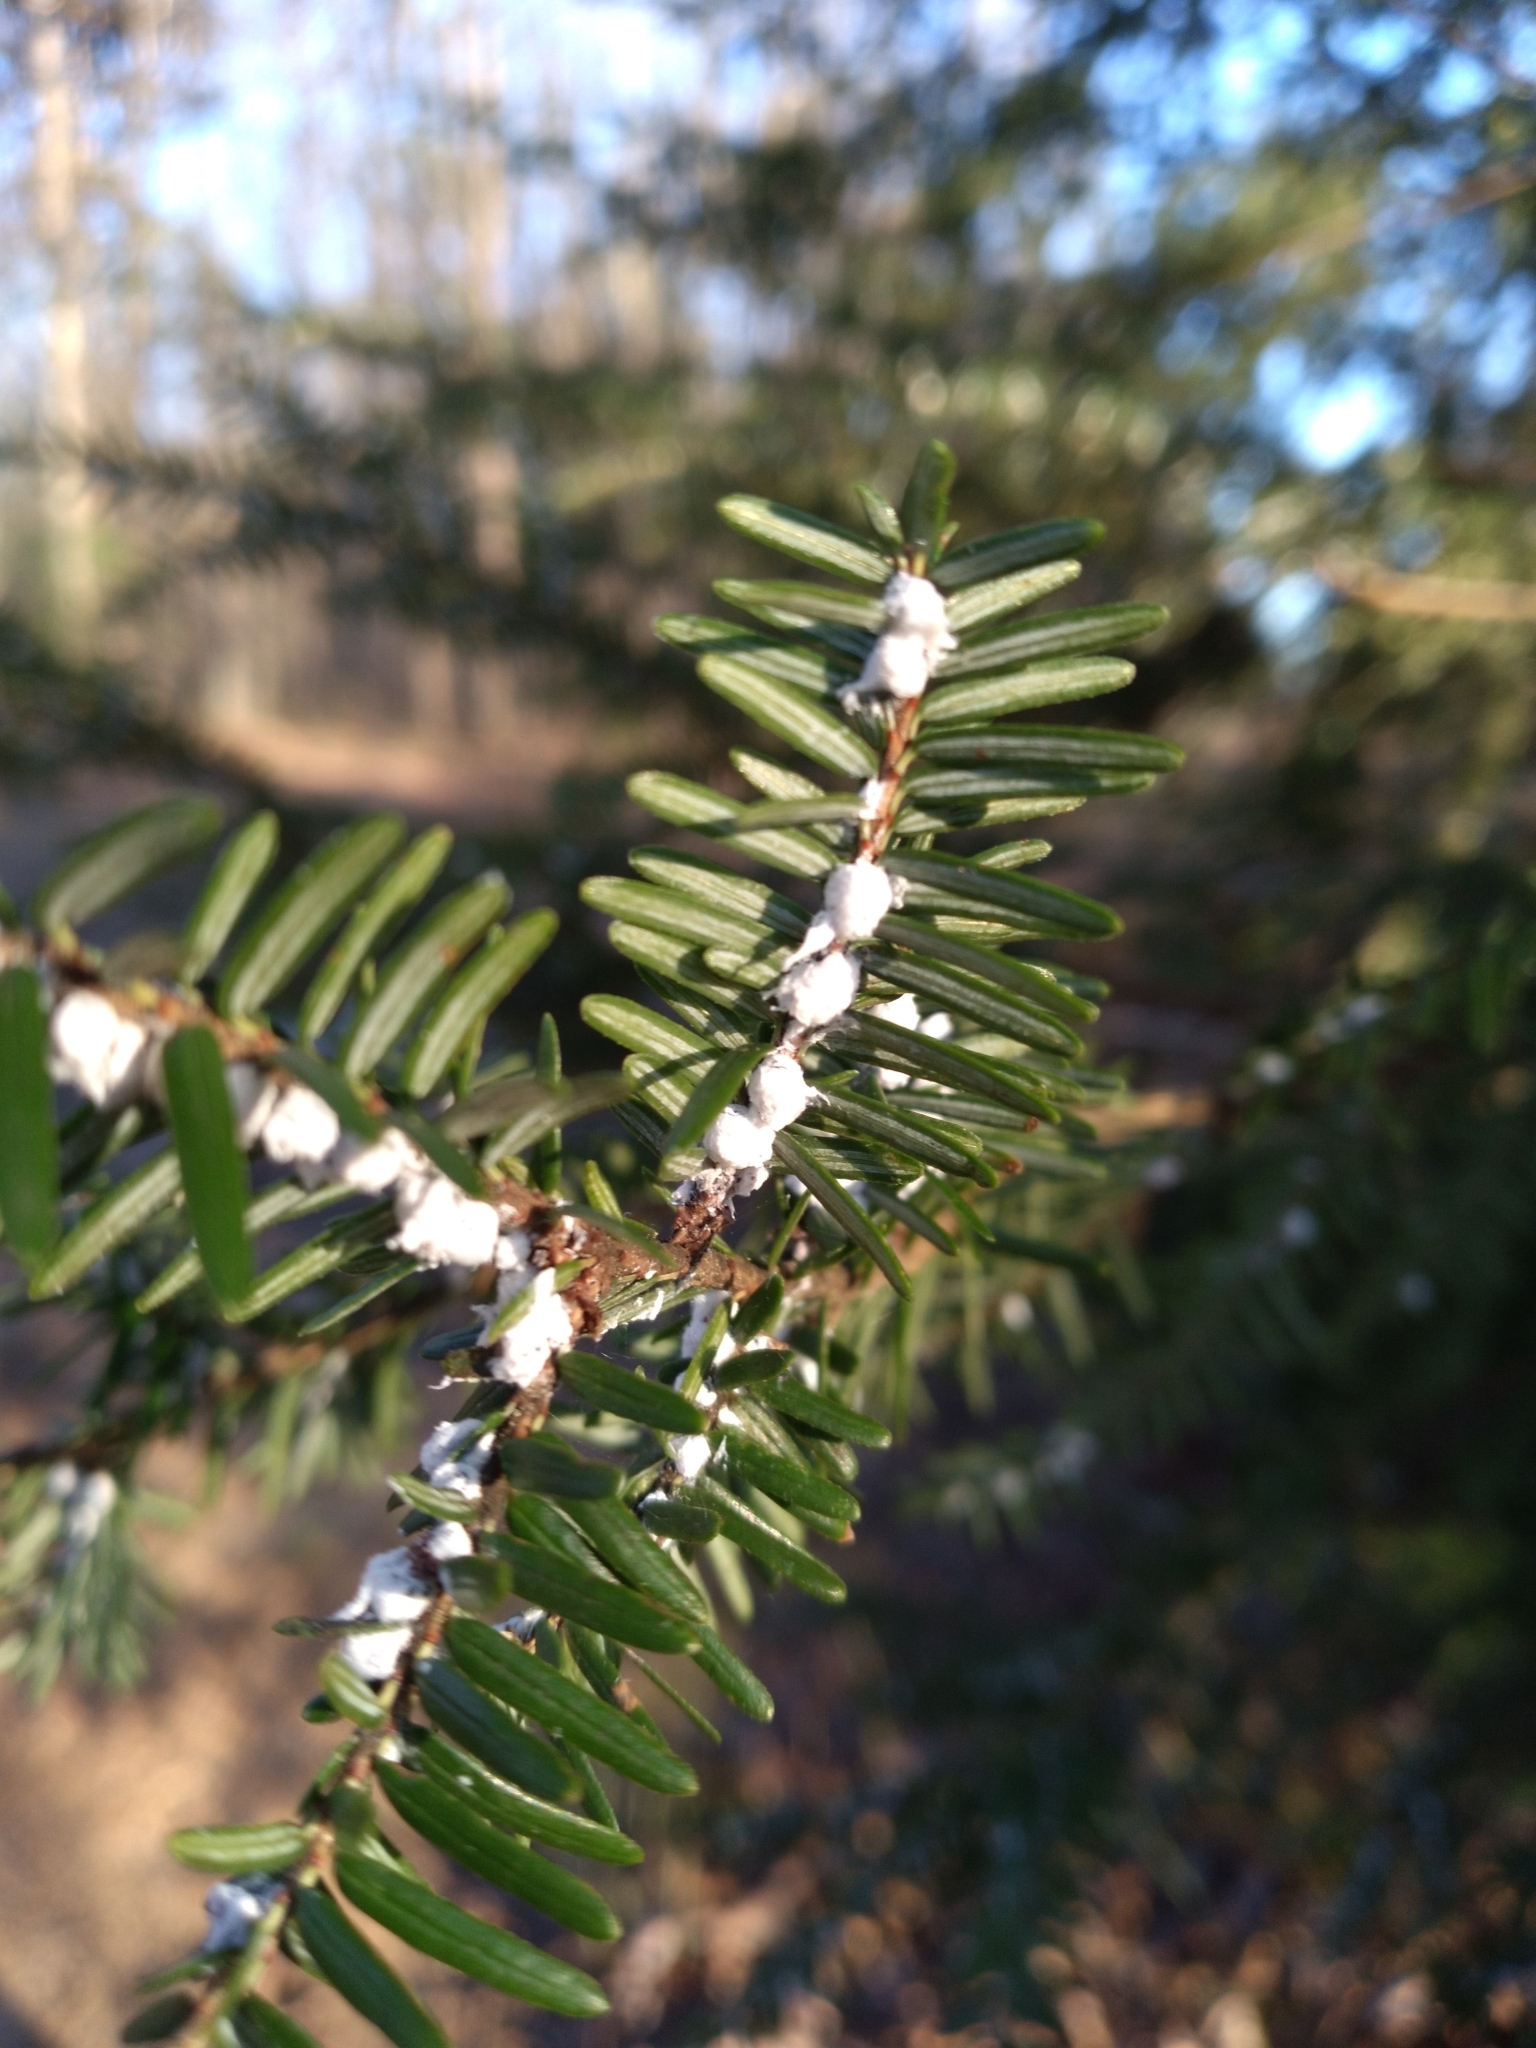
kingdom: Animalia
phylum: Arthropoda
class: Insecta
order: Hemiptera
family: Adelgidae
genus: Adelges
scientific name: Adelges tsugae
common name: Hemlock woolly adelgid
